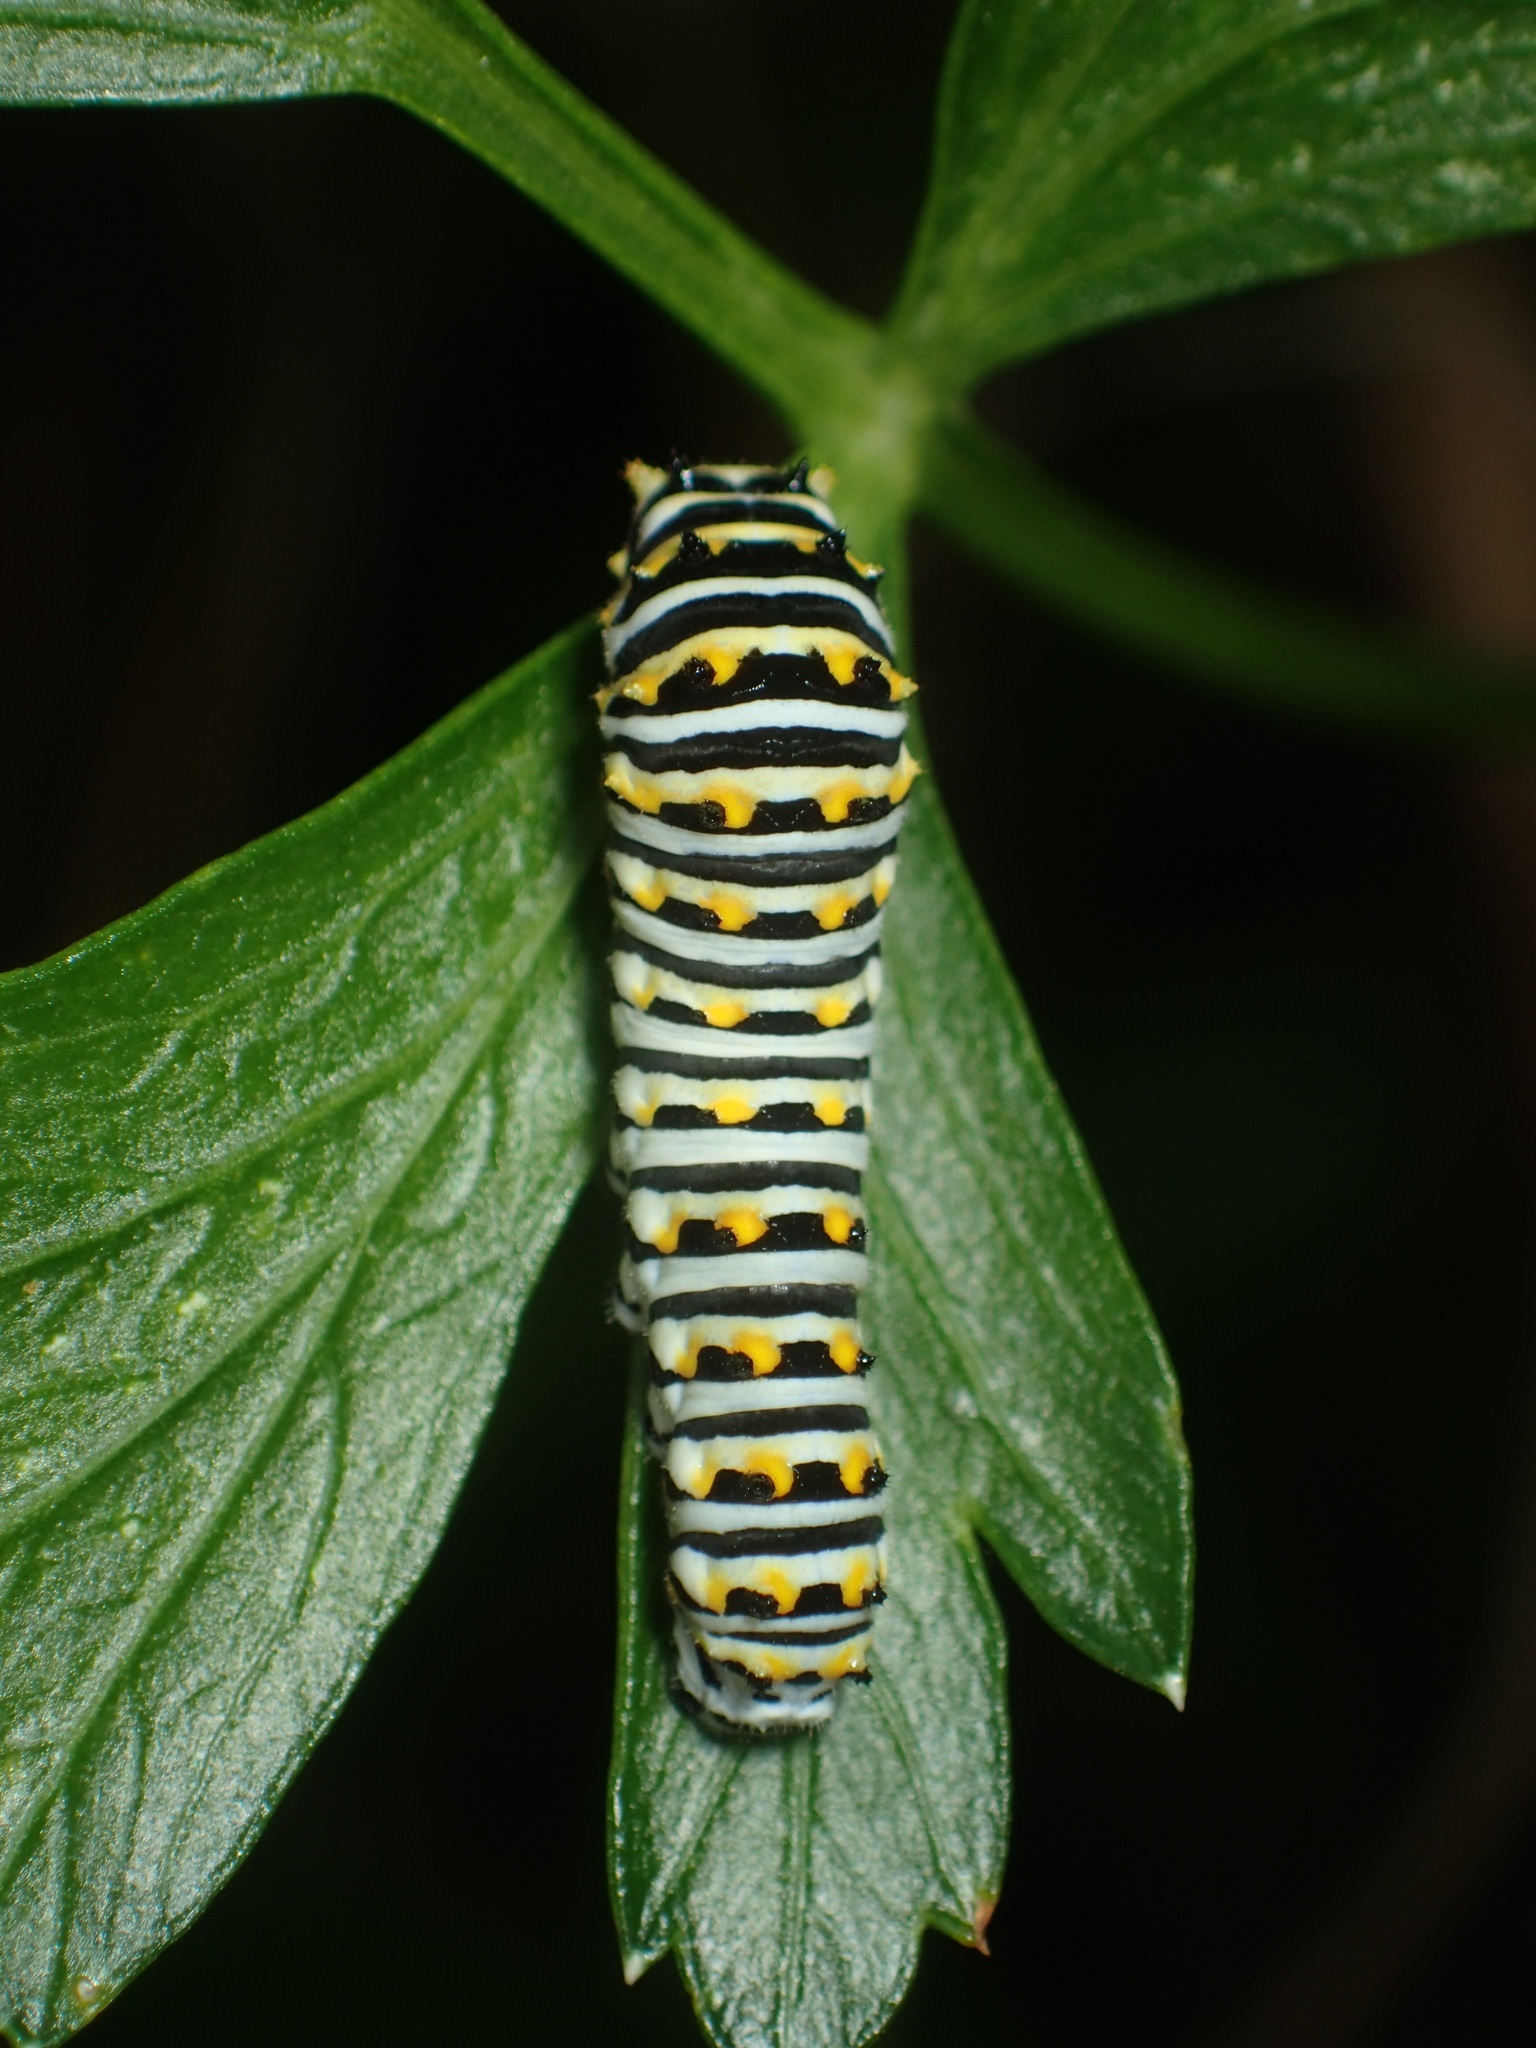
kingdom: Animalia
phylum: Arthropoda
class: Insecta
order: Lepidoptera
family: Papilionidae
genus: Papilio
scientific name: Papilio polyxenes
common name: Black swallowtail
